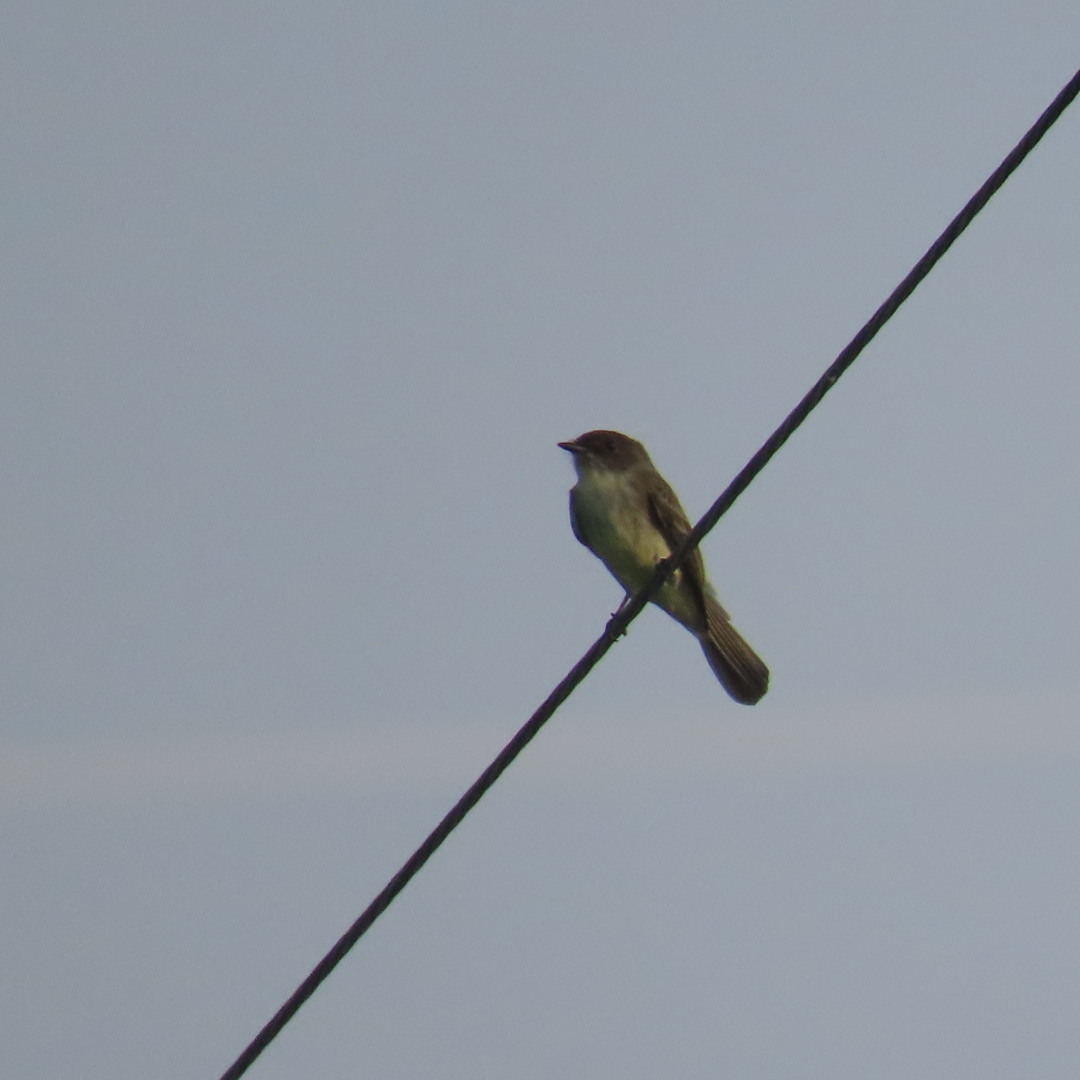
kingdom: Animalia
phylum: Chordata
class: Aves
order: Passeriformes
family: Tyrannidae
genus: Sayornis
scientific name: Sayornis phoebe
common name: Eastern phoebe
